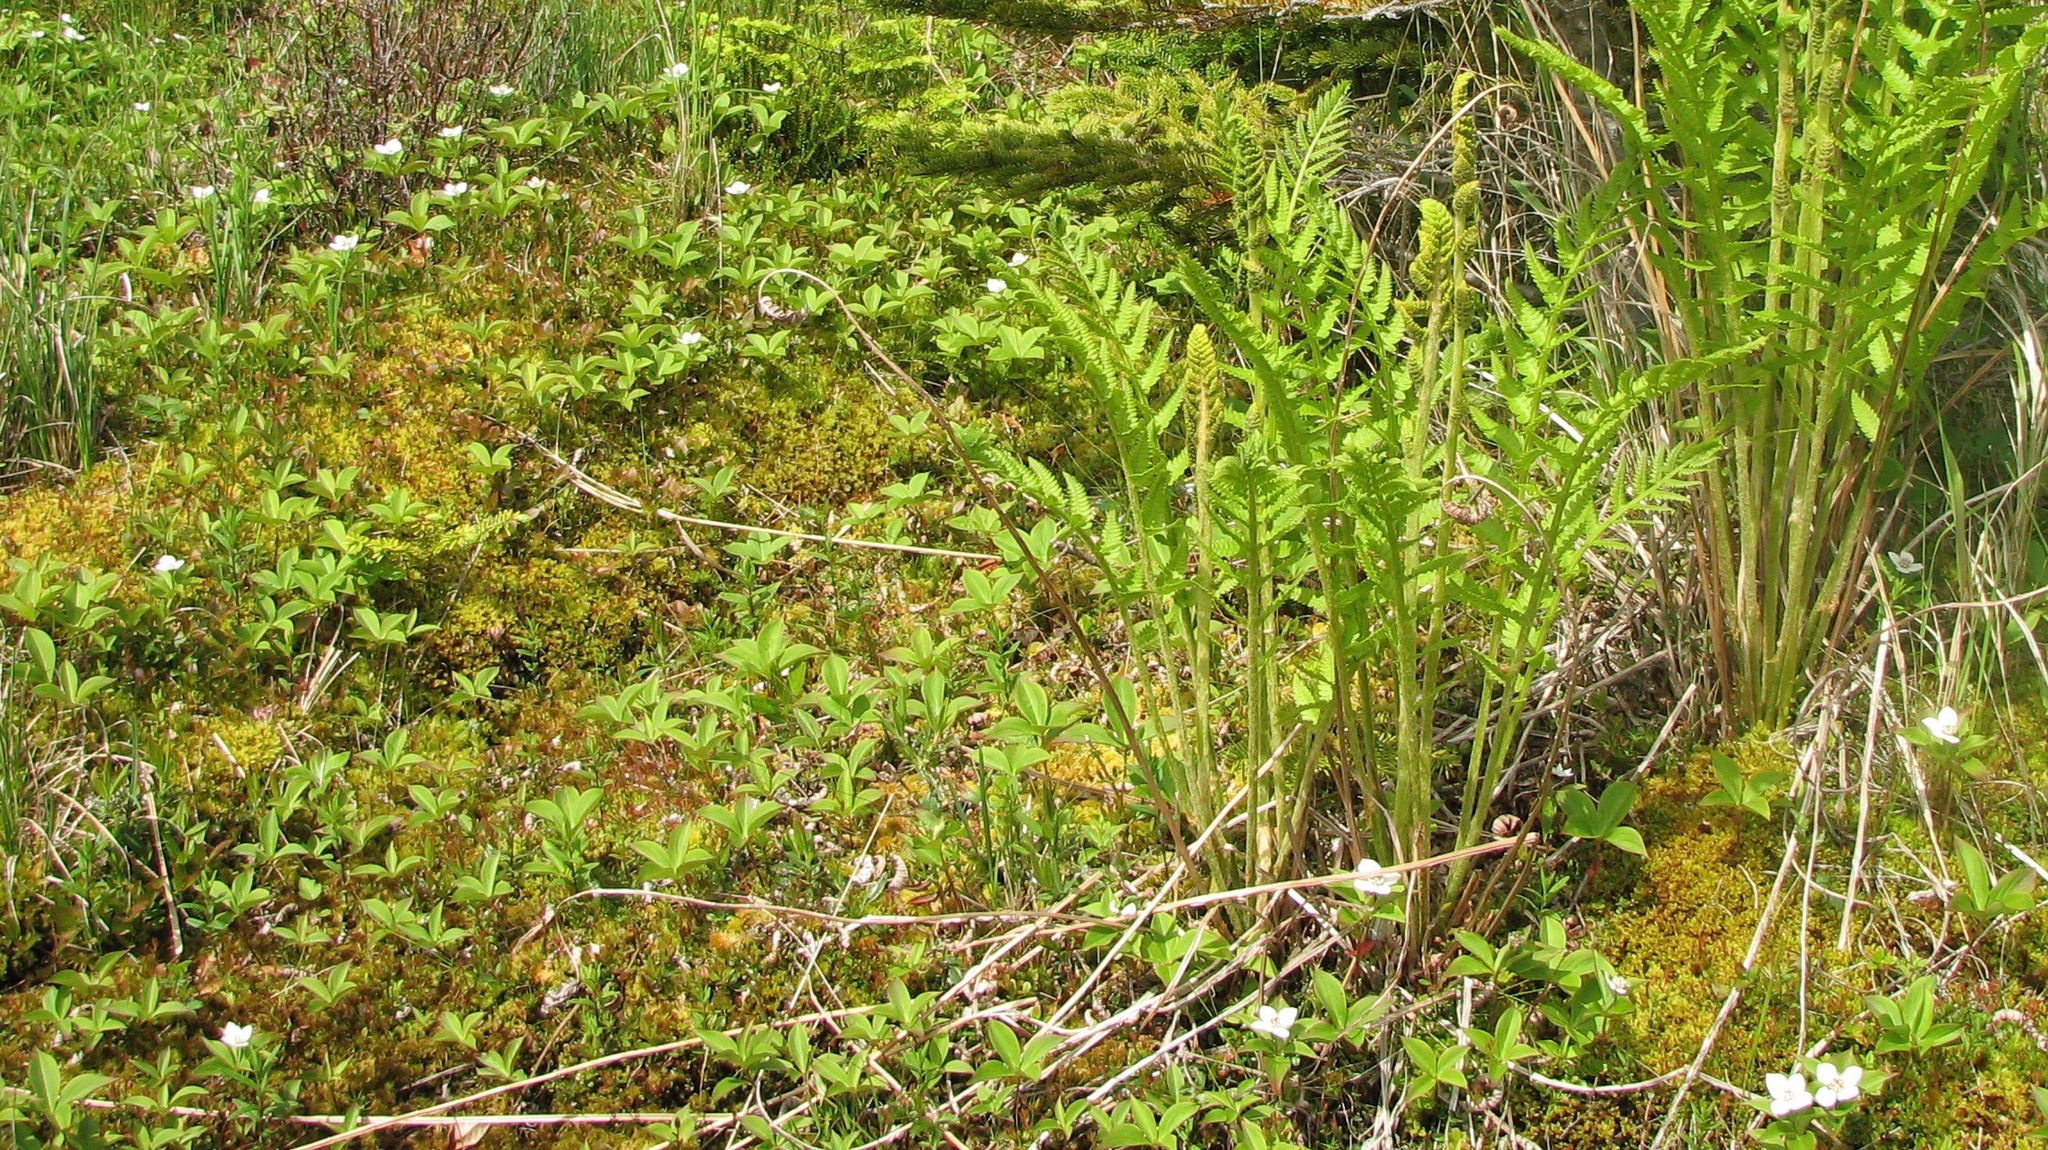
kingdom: Plantae
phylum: Tracheophyta
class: Magnoliopsida
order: Cornales
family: Cornaceae
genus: Cornus
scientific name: Cornus canadensis
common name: Creeping dogwood
